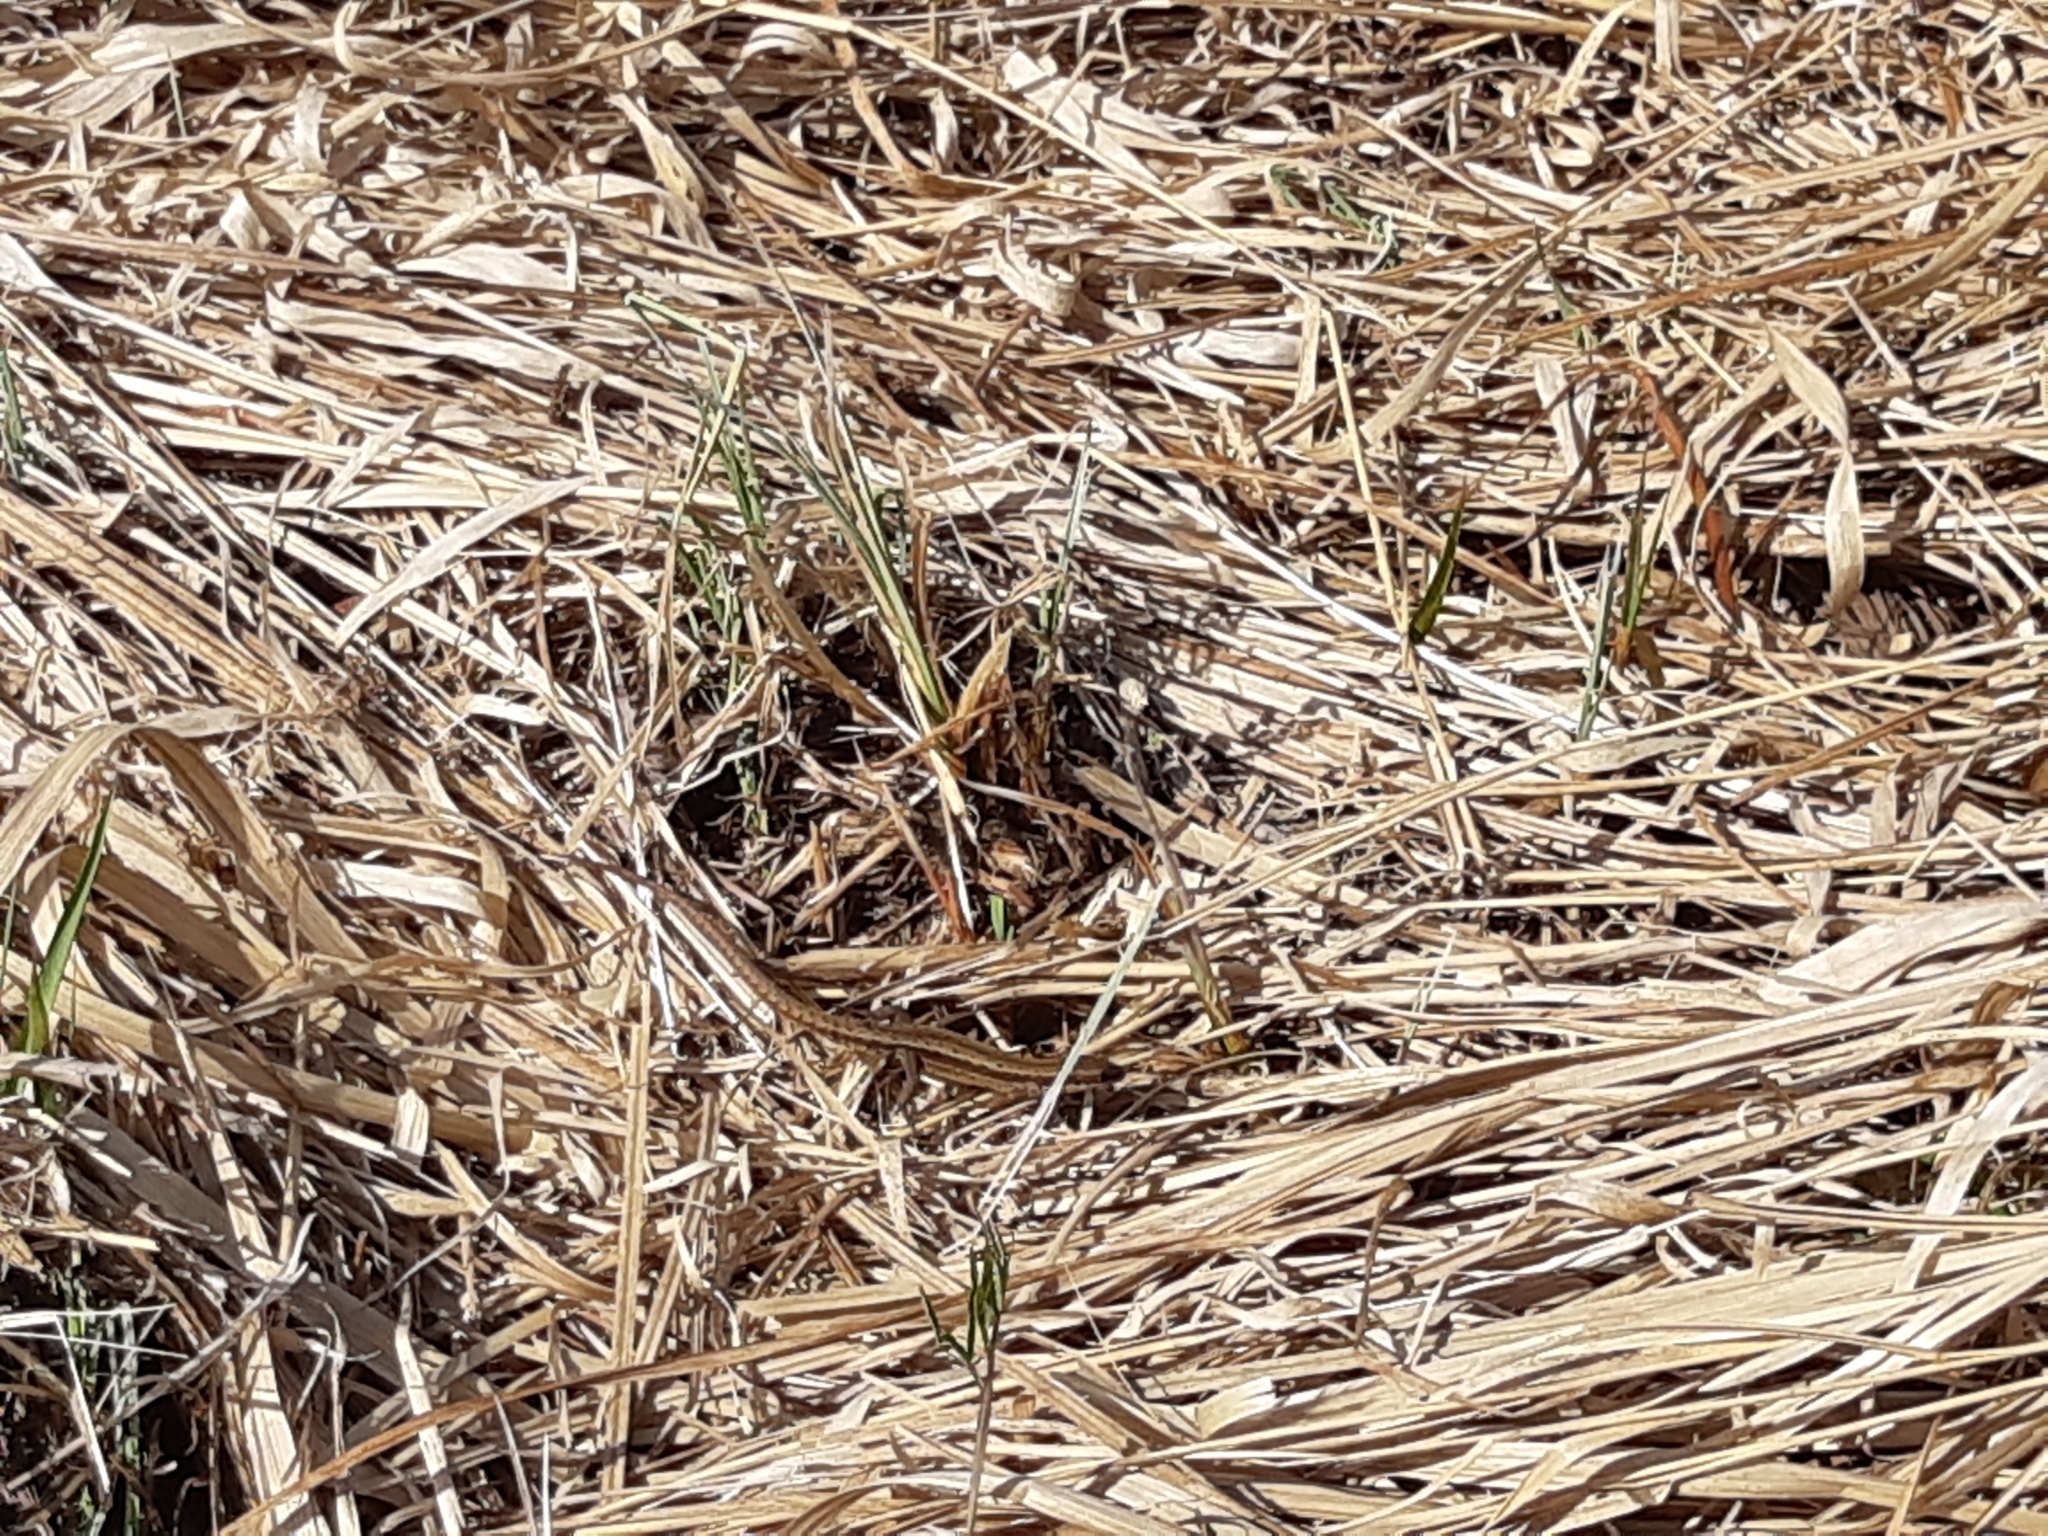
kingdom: Animalia
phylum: Chordata
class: Squamata
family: Lacertidae
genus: Zootoca
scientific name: Zootoca vivipara
